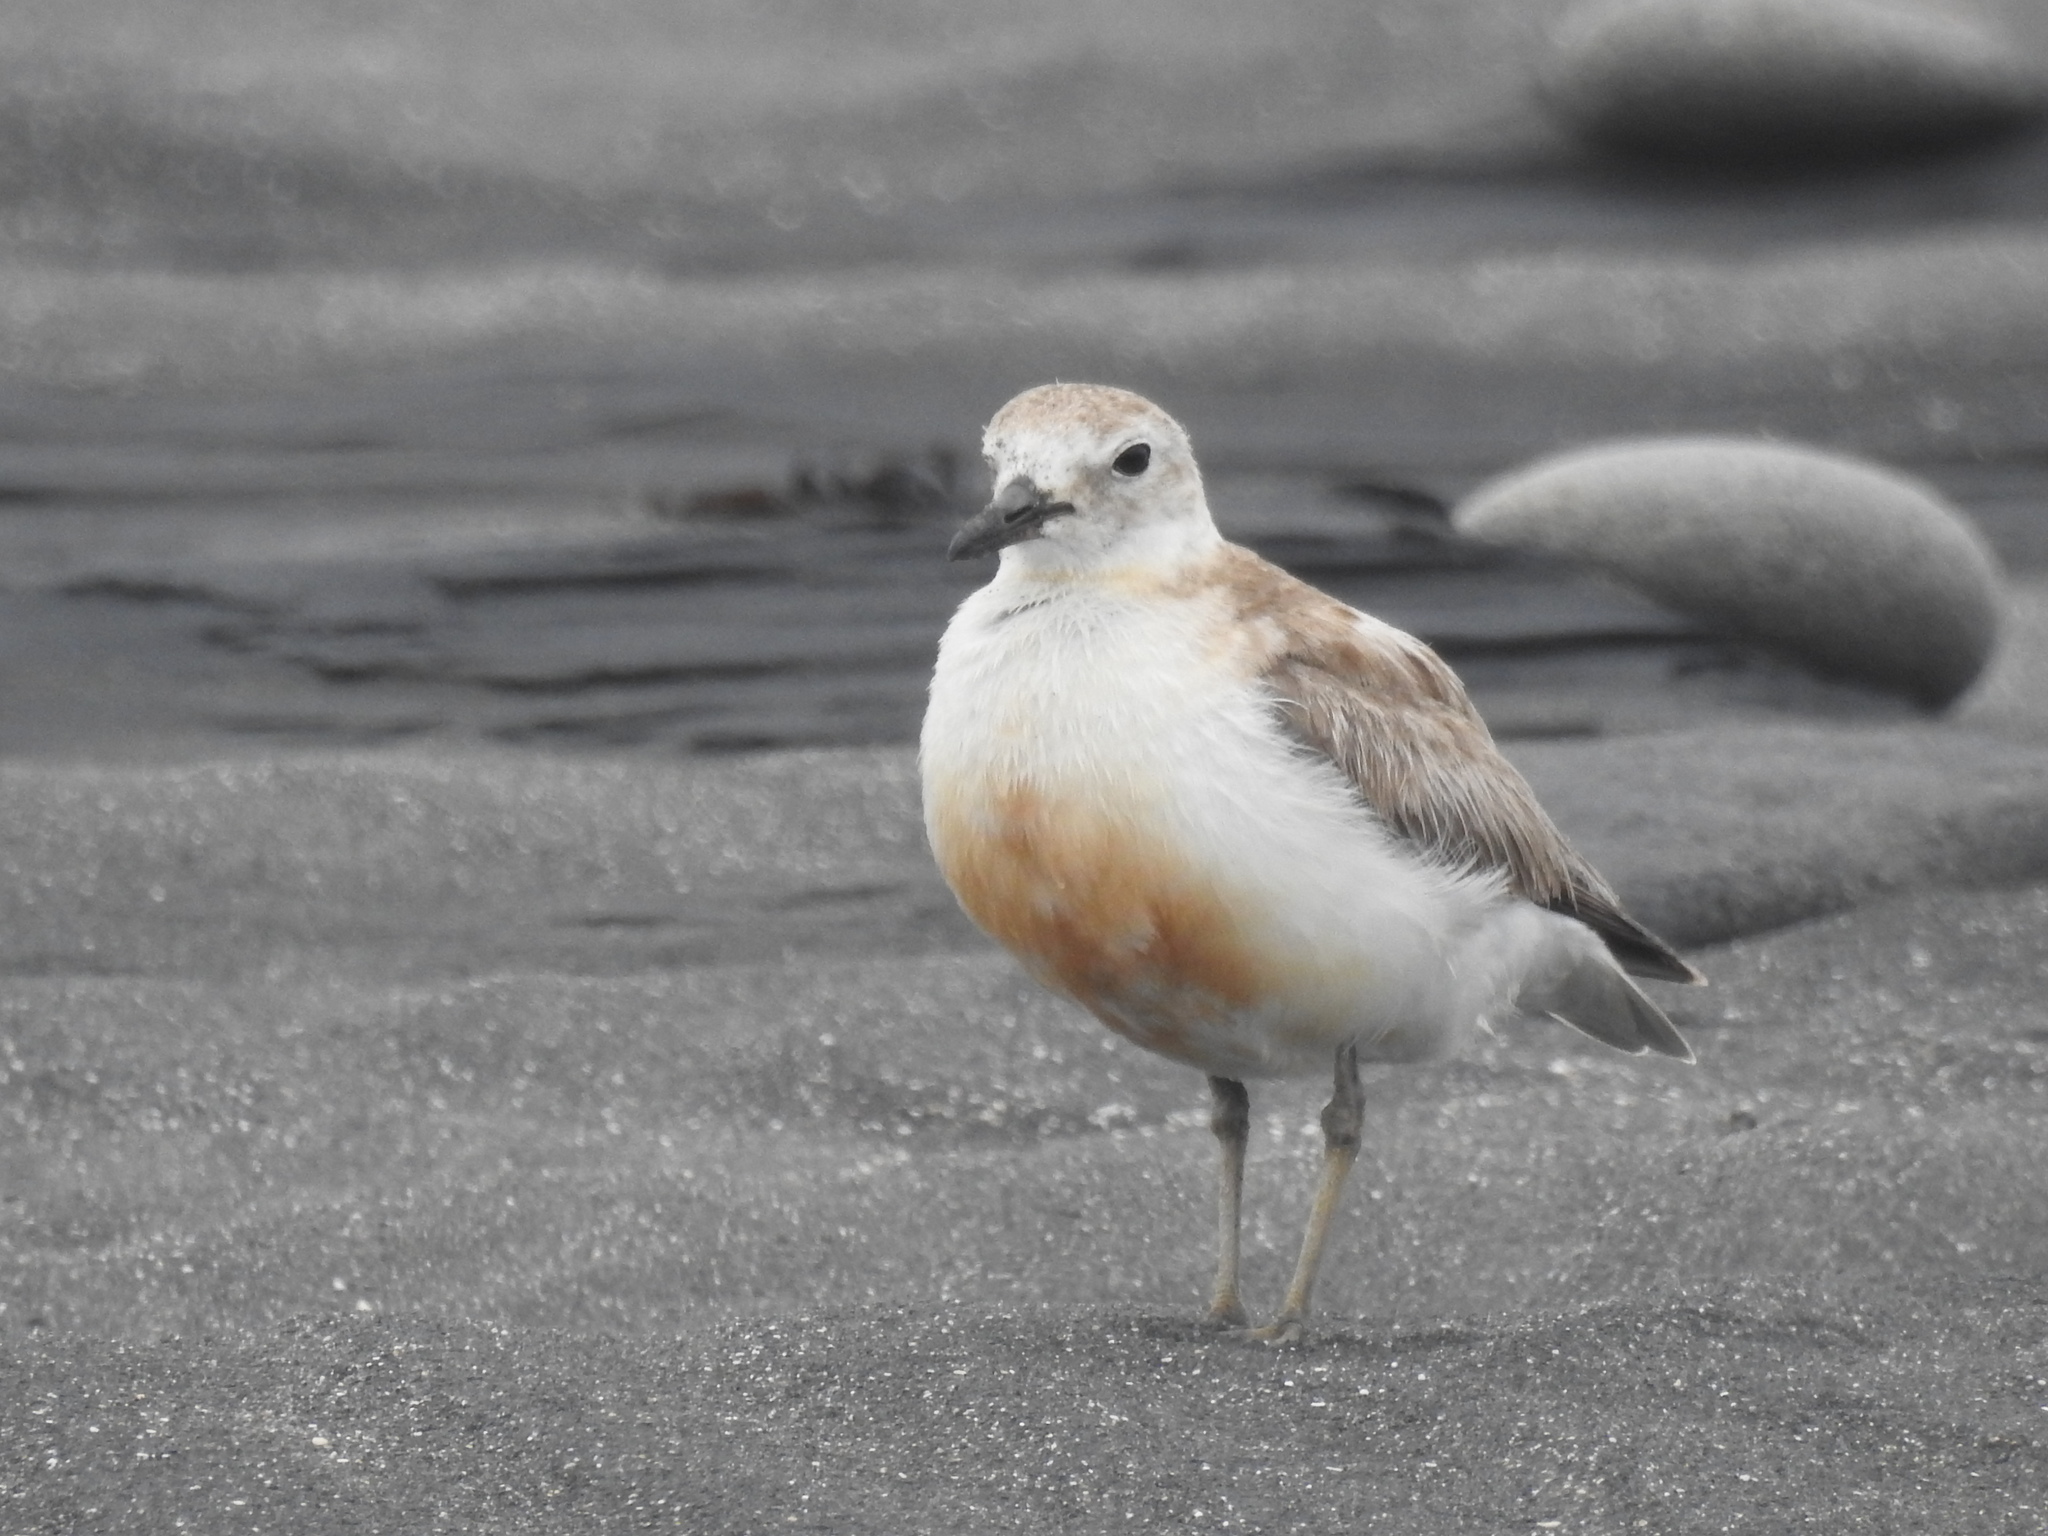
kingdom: Animalia
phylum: Chordata
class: Aves
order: Charadriiformes
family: Charadriidae
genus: Anarhynchus
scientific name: Anarhynchus
